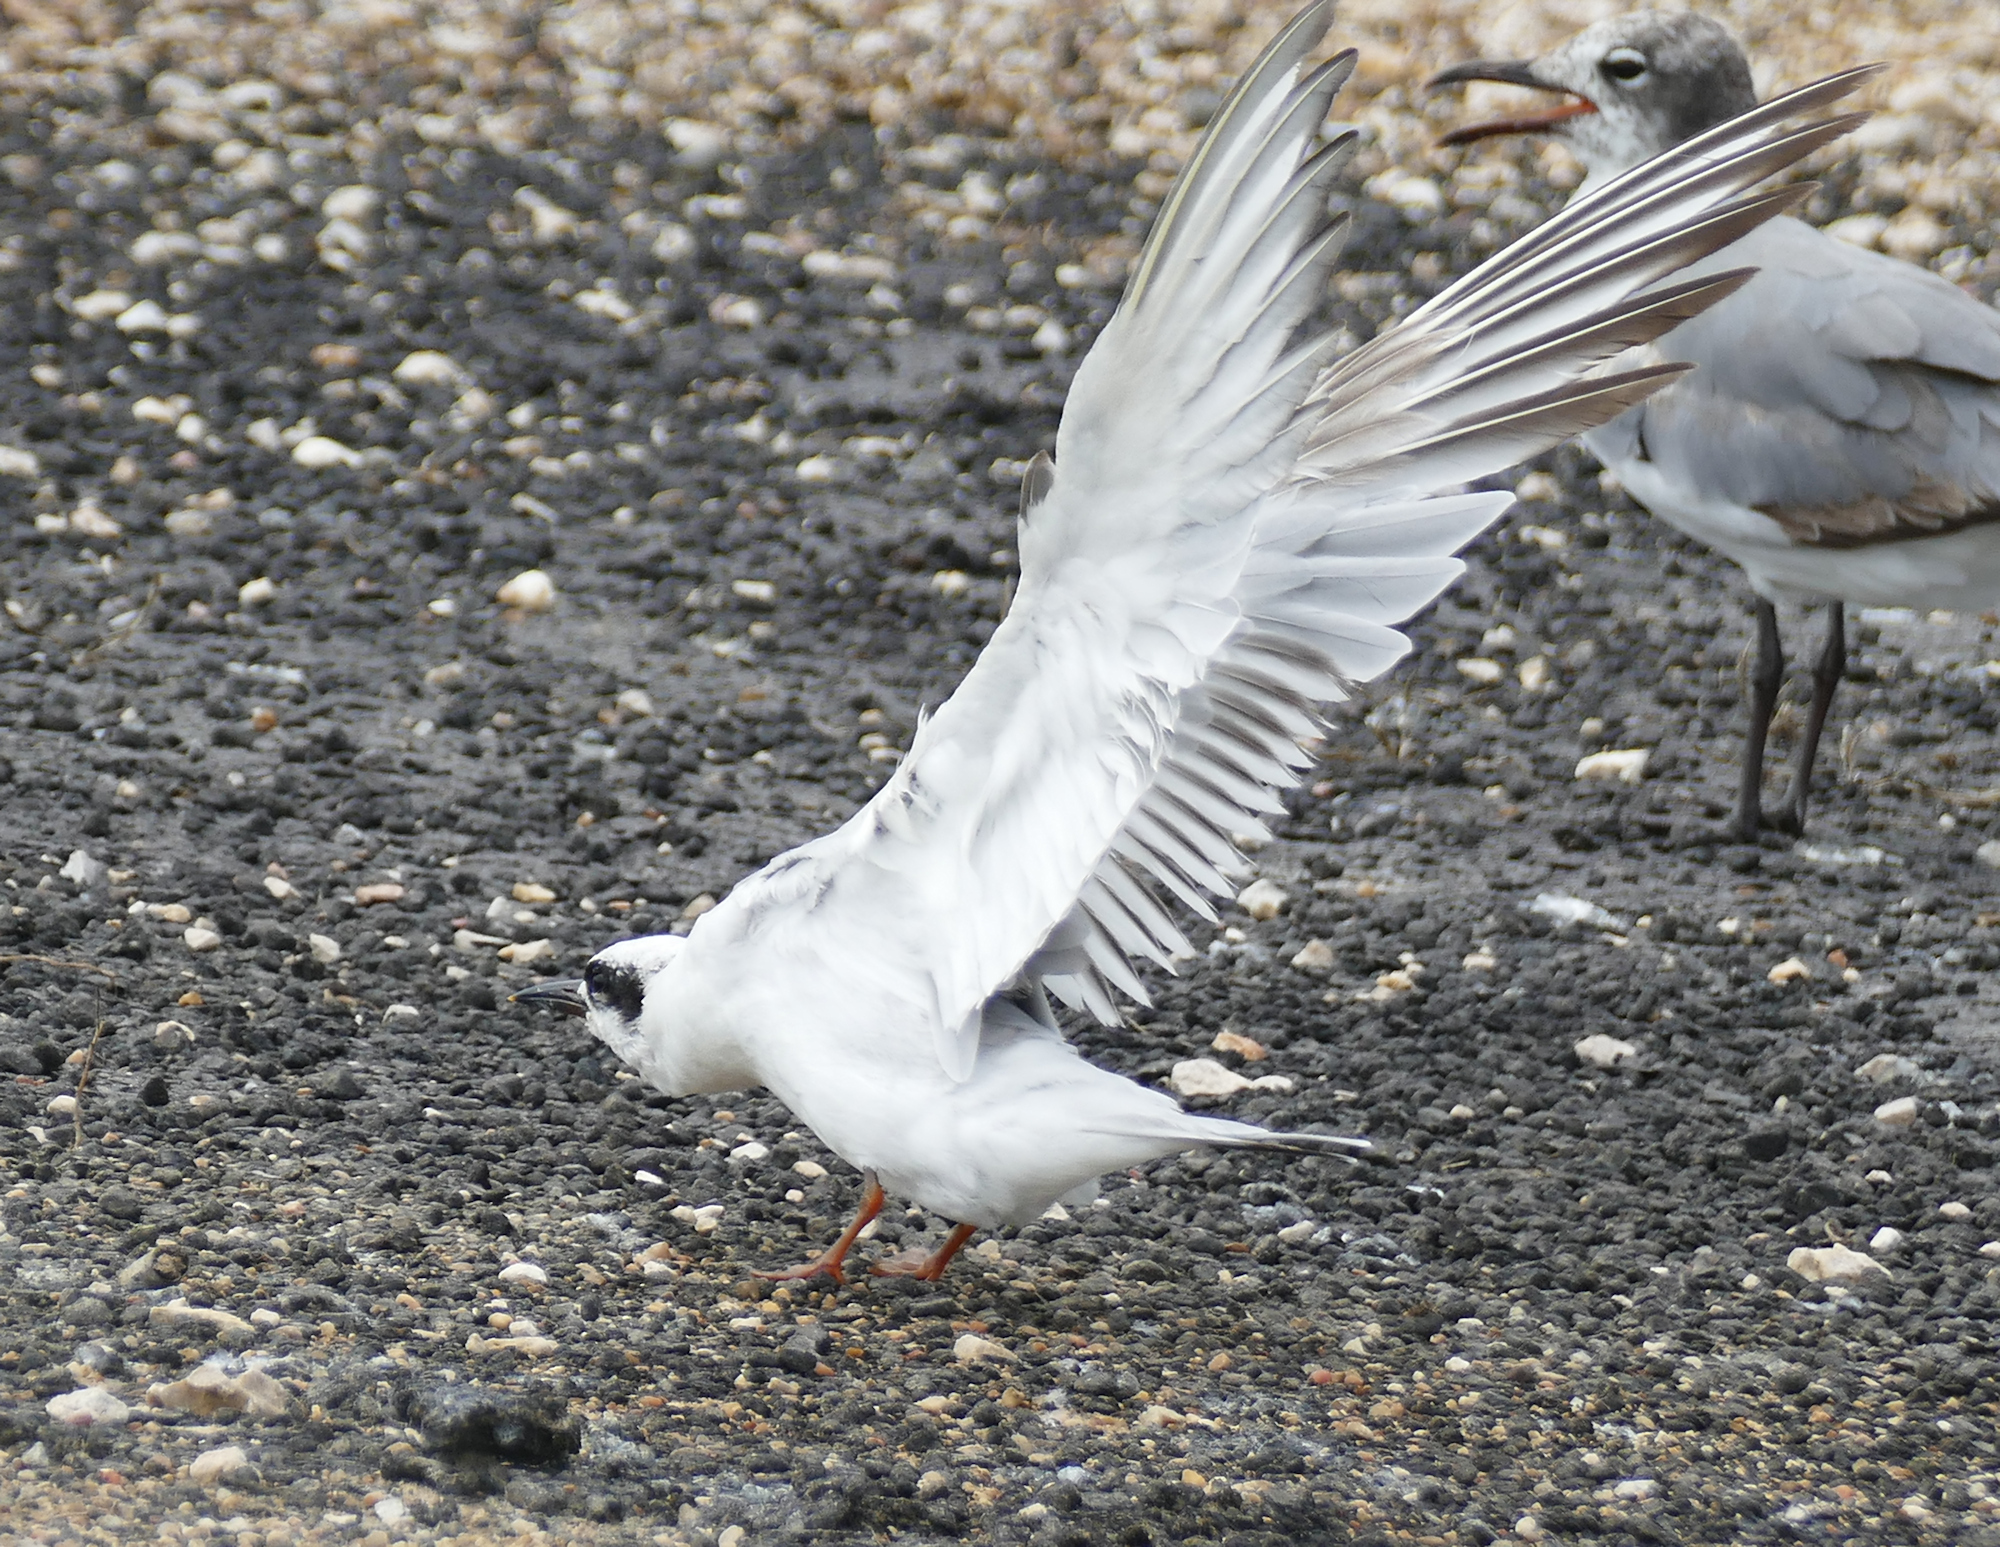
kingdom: Animalia
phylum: Chordata
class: Aves
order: Charadriiformes
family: Laridae
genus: Sterna
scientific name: Sterna forsteri
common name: Forster's tern
